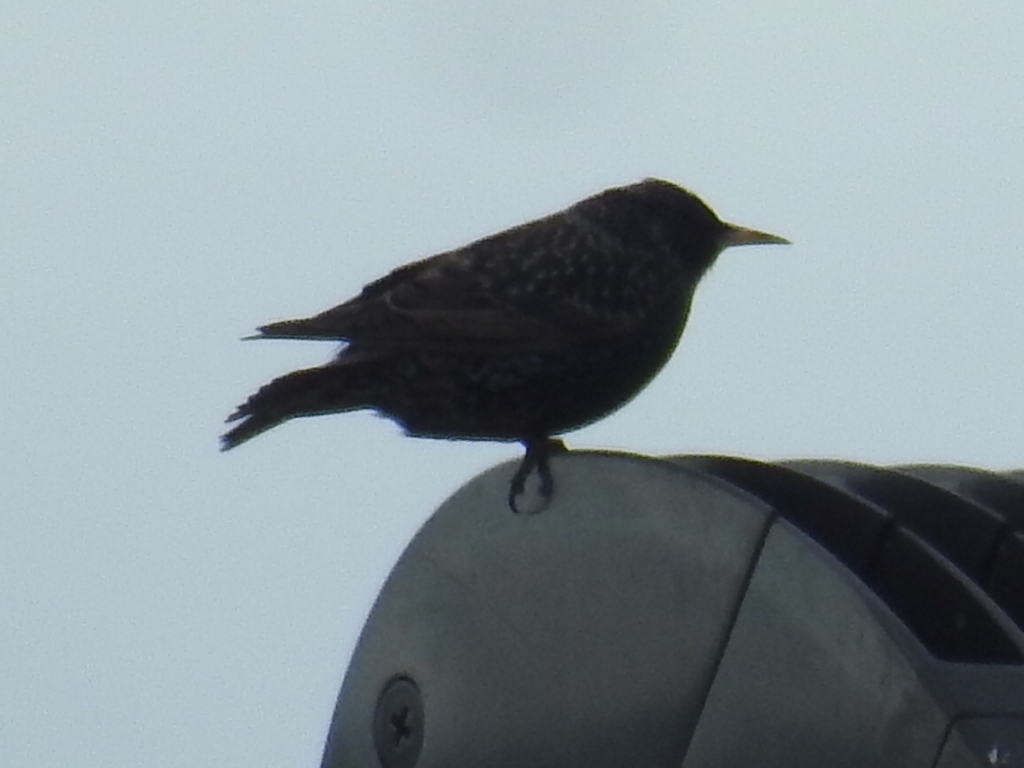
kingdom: Animalia
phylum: Chordata
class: Aves
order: Passeriformes
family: Sturnidae
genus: Sturnus
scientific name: Sturnus vulgaris
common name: Common starling
